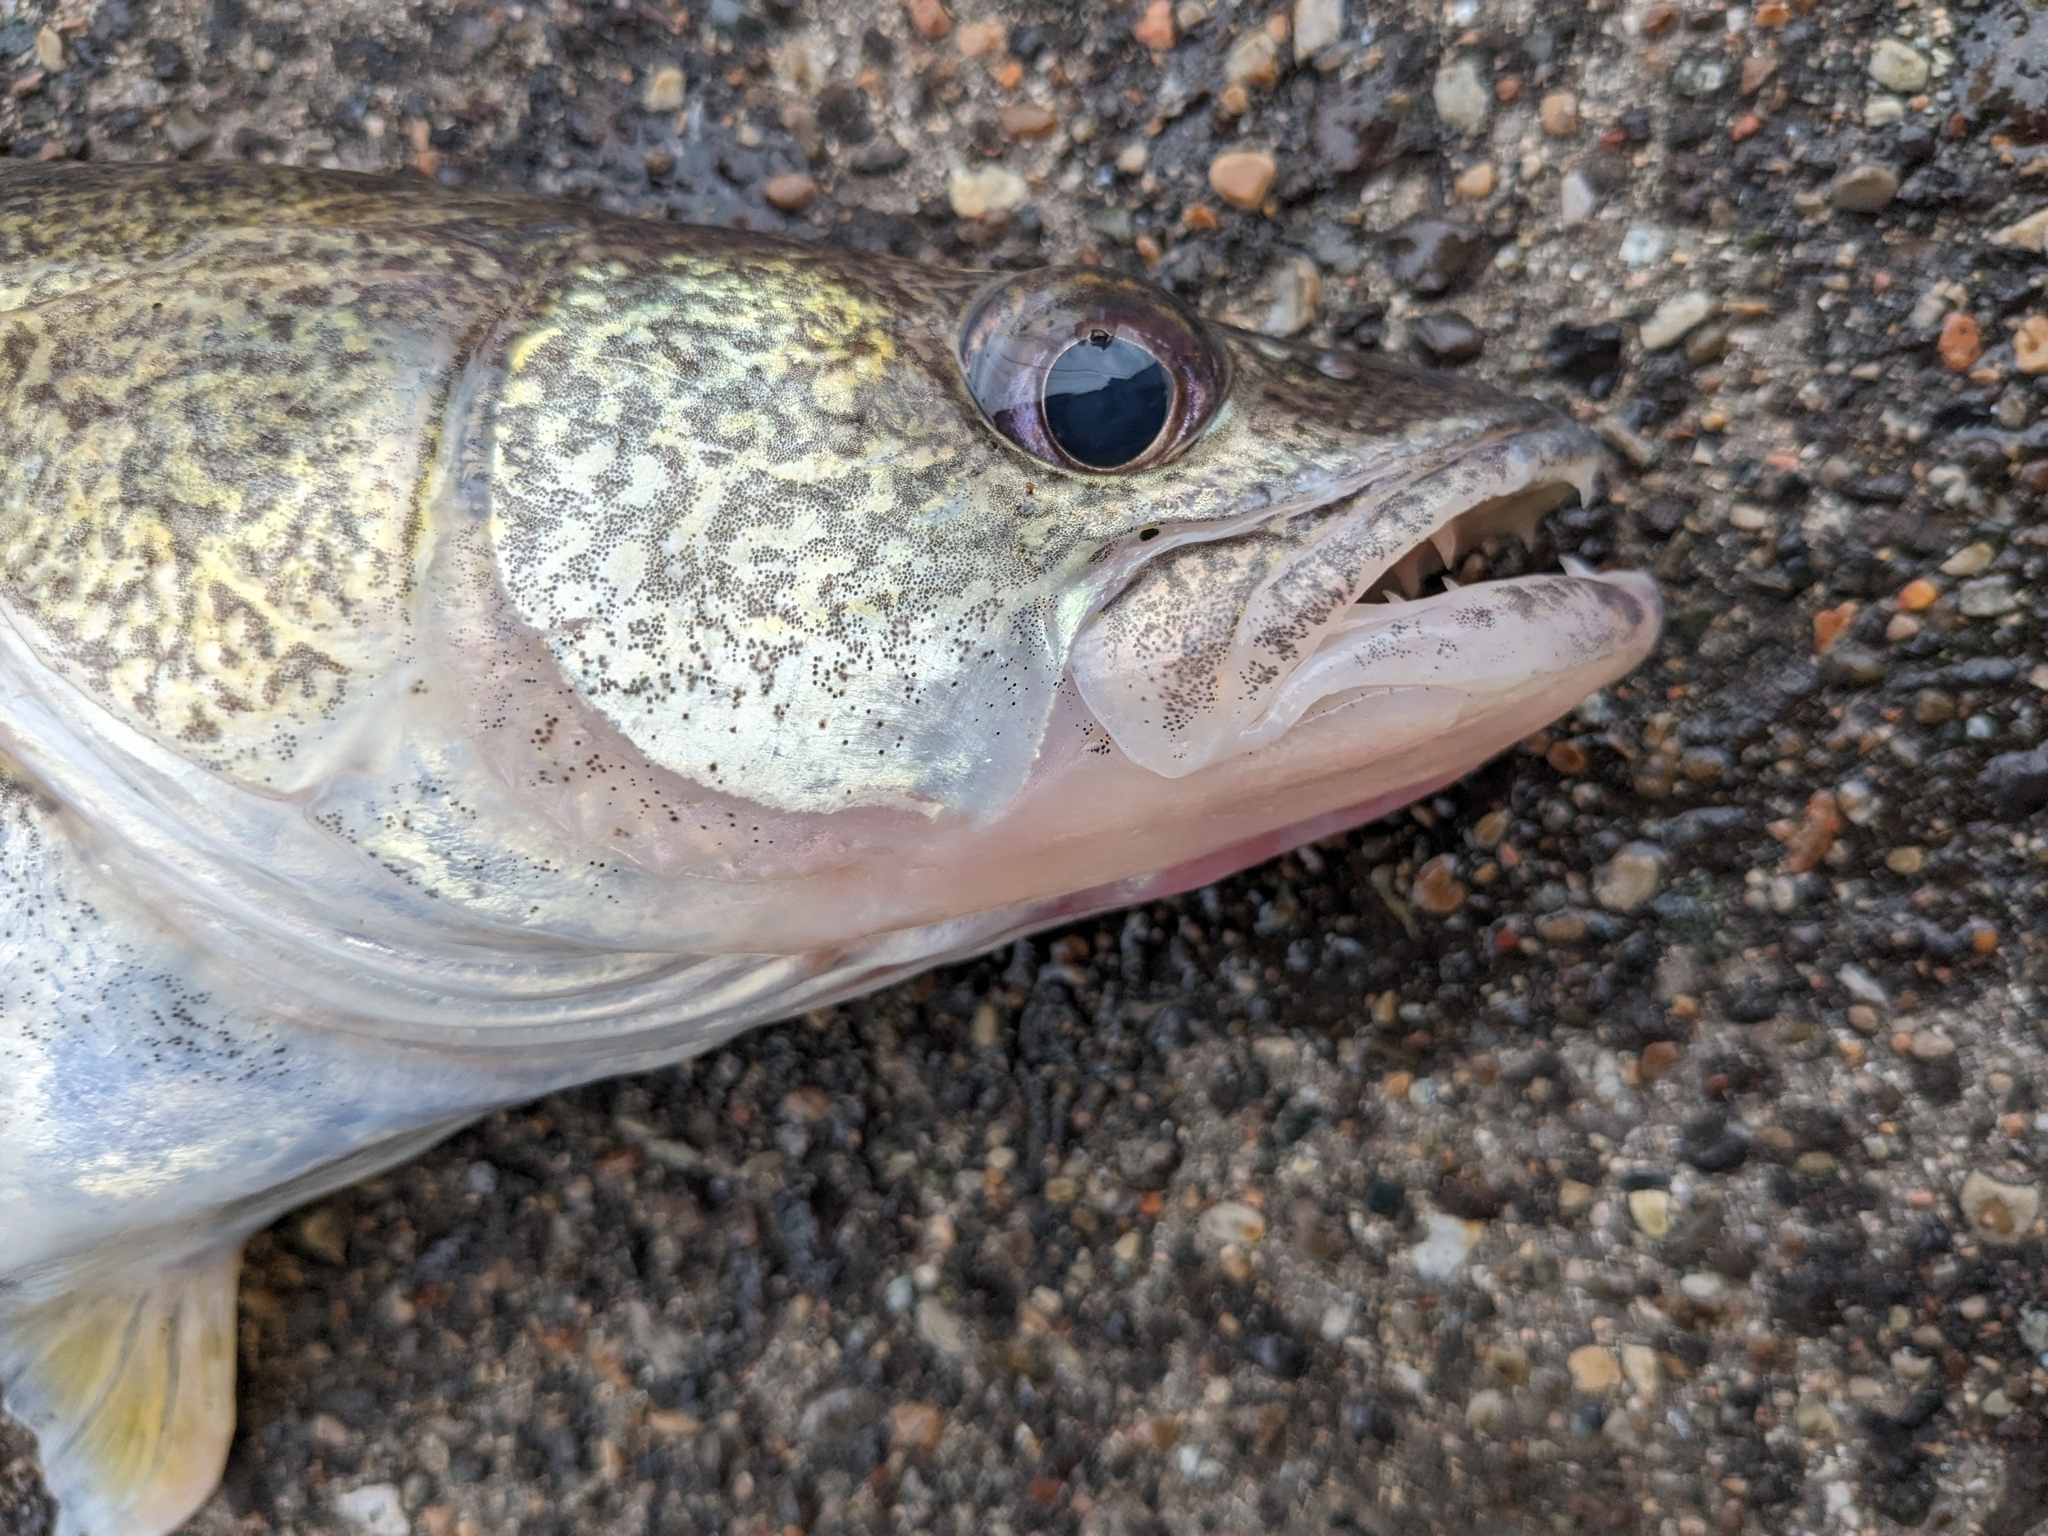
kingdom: Animalia
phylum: Chordata
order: Perciformes
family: Percidae
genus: Sander
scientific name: Sander vitreus
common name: Walleye
